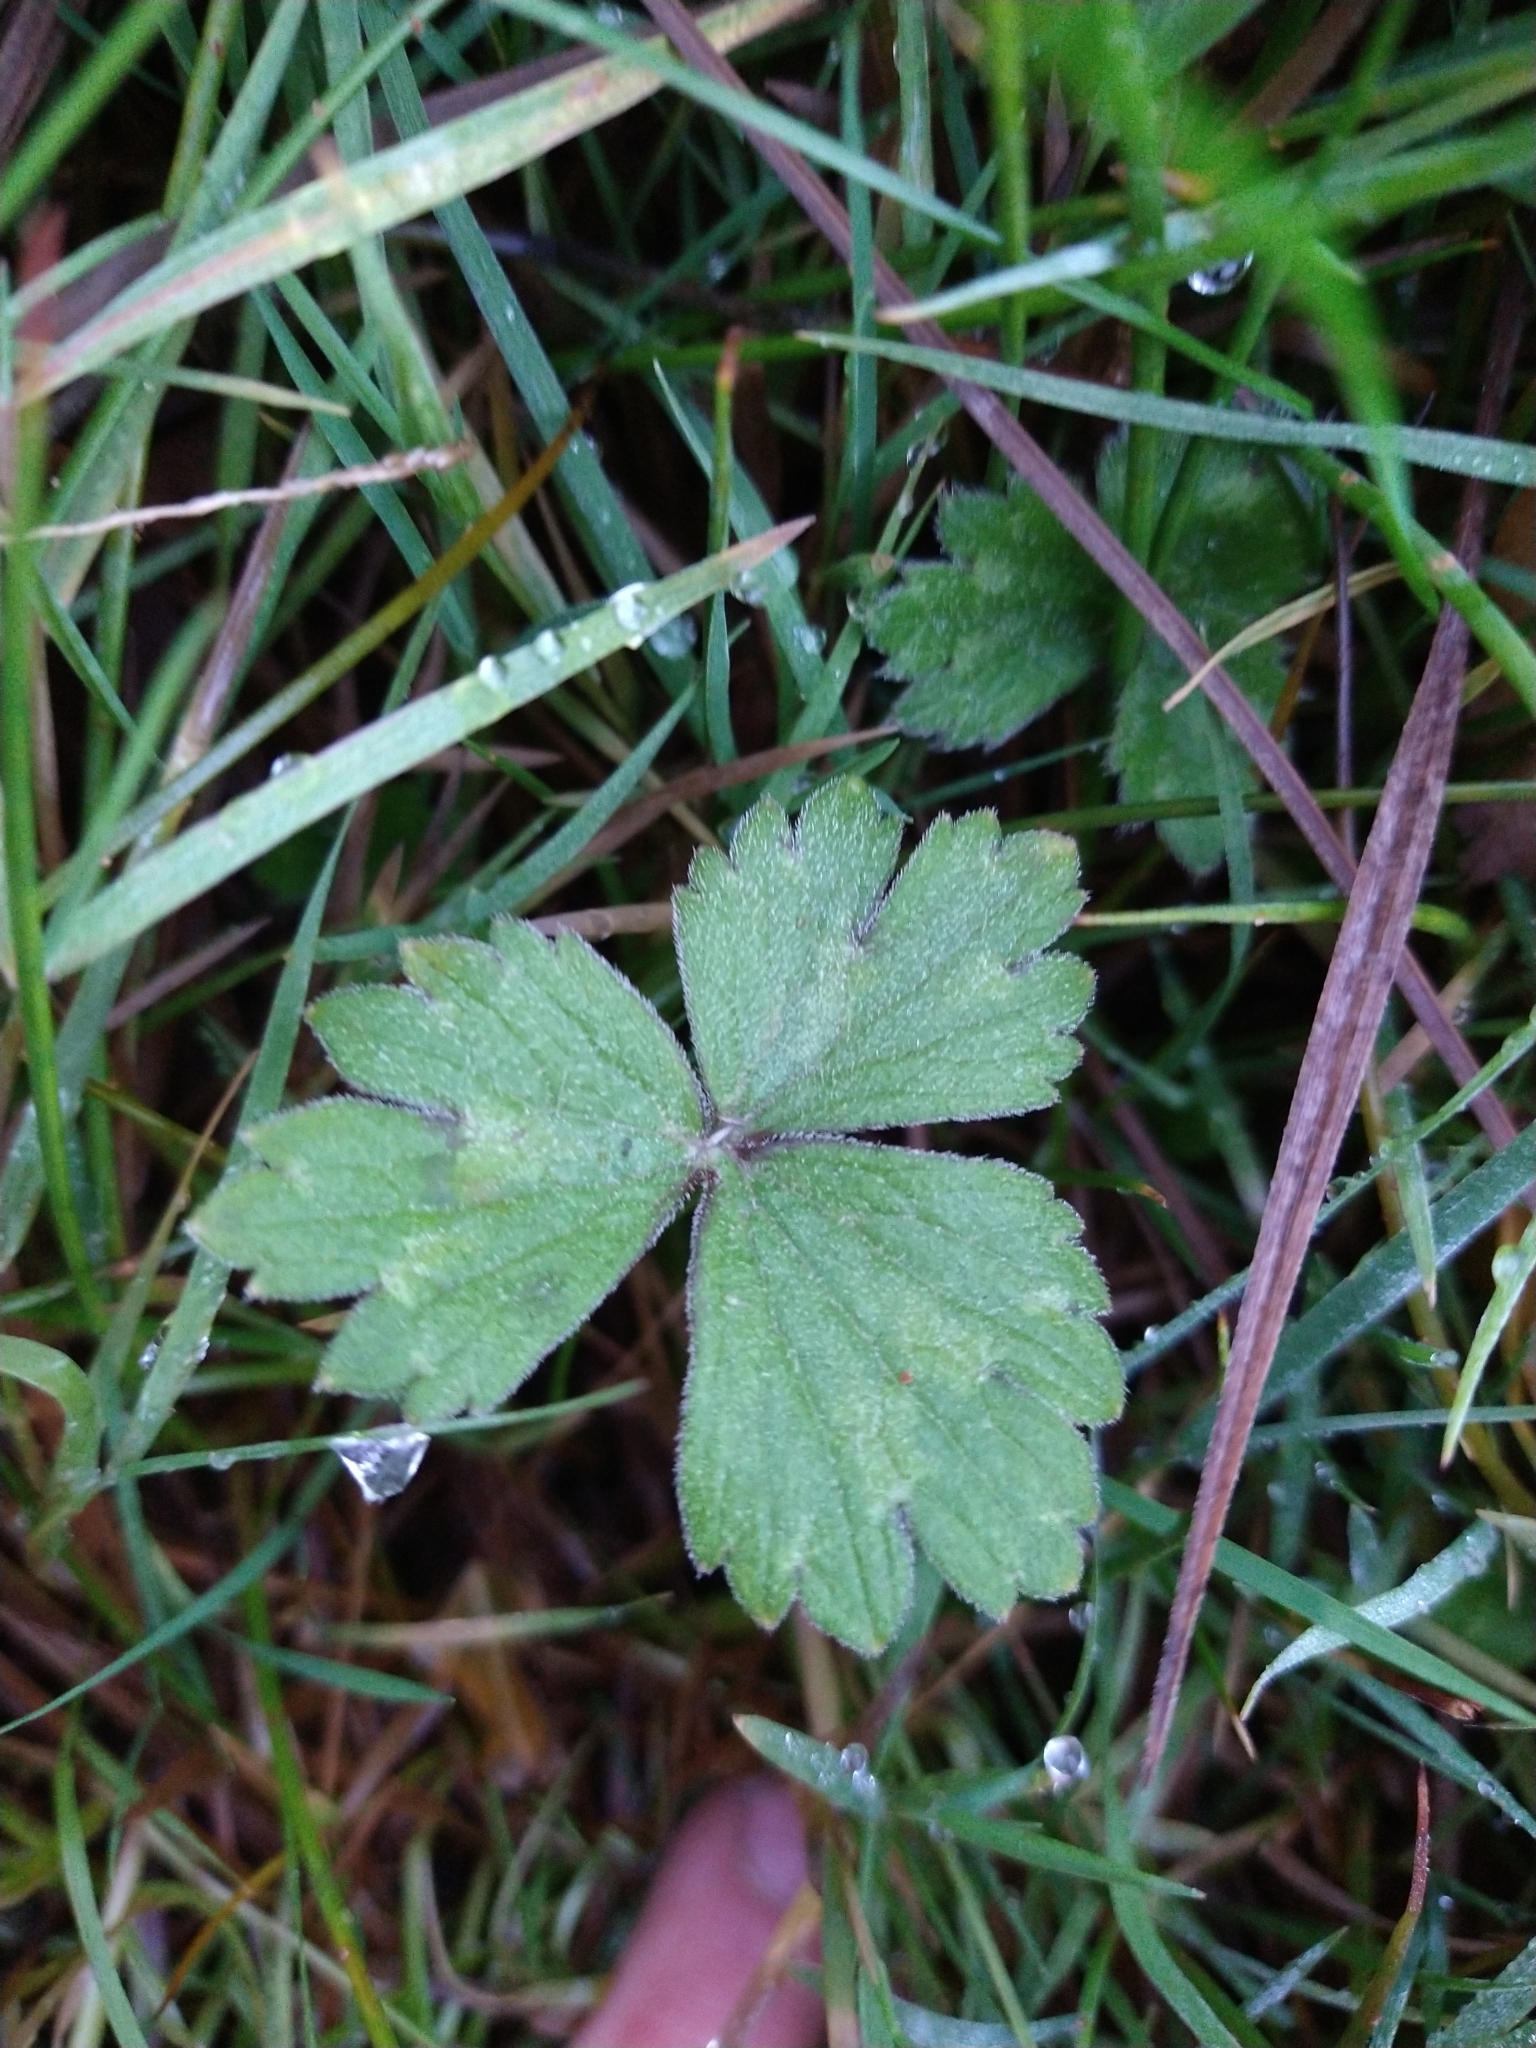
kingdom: Plantae
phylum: Tracheophyta
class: Magnoliopsida
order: Ranunculales
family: Ranunculaceae
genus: Ranunculus
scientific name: Ranunculus repens
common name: Creeping buttercup
